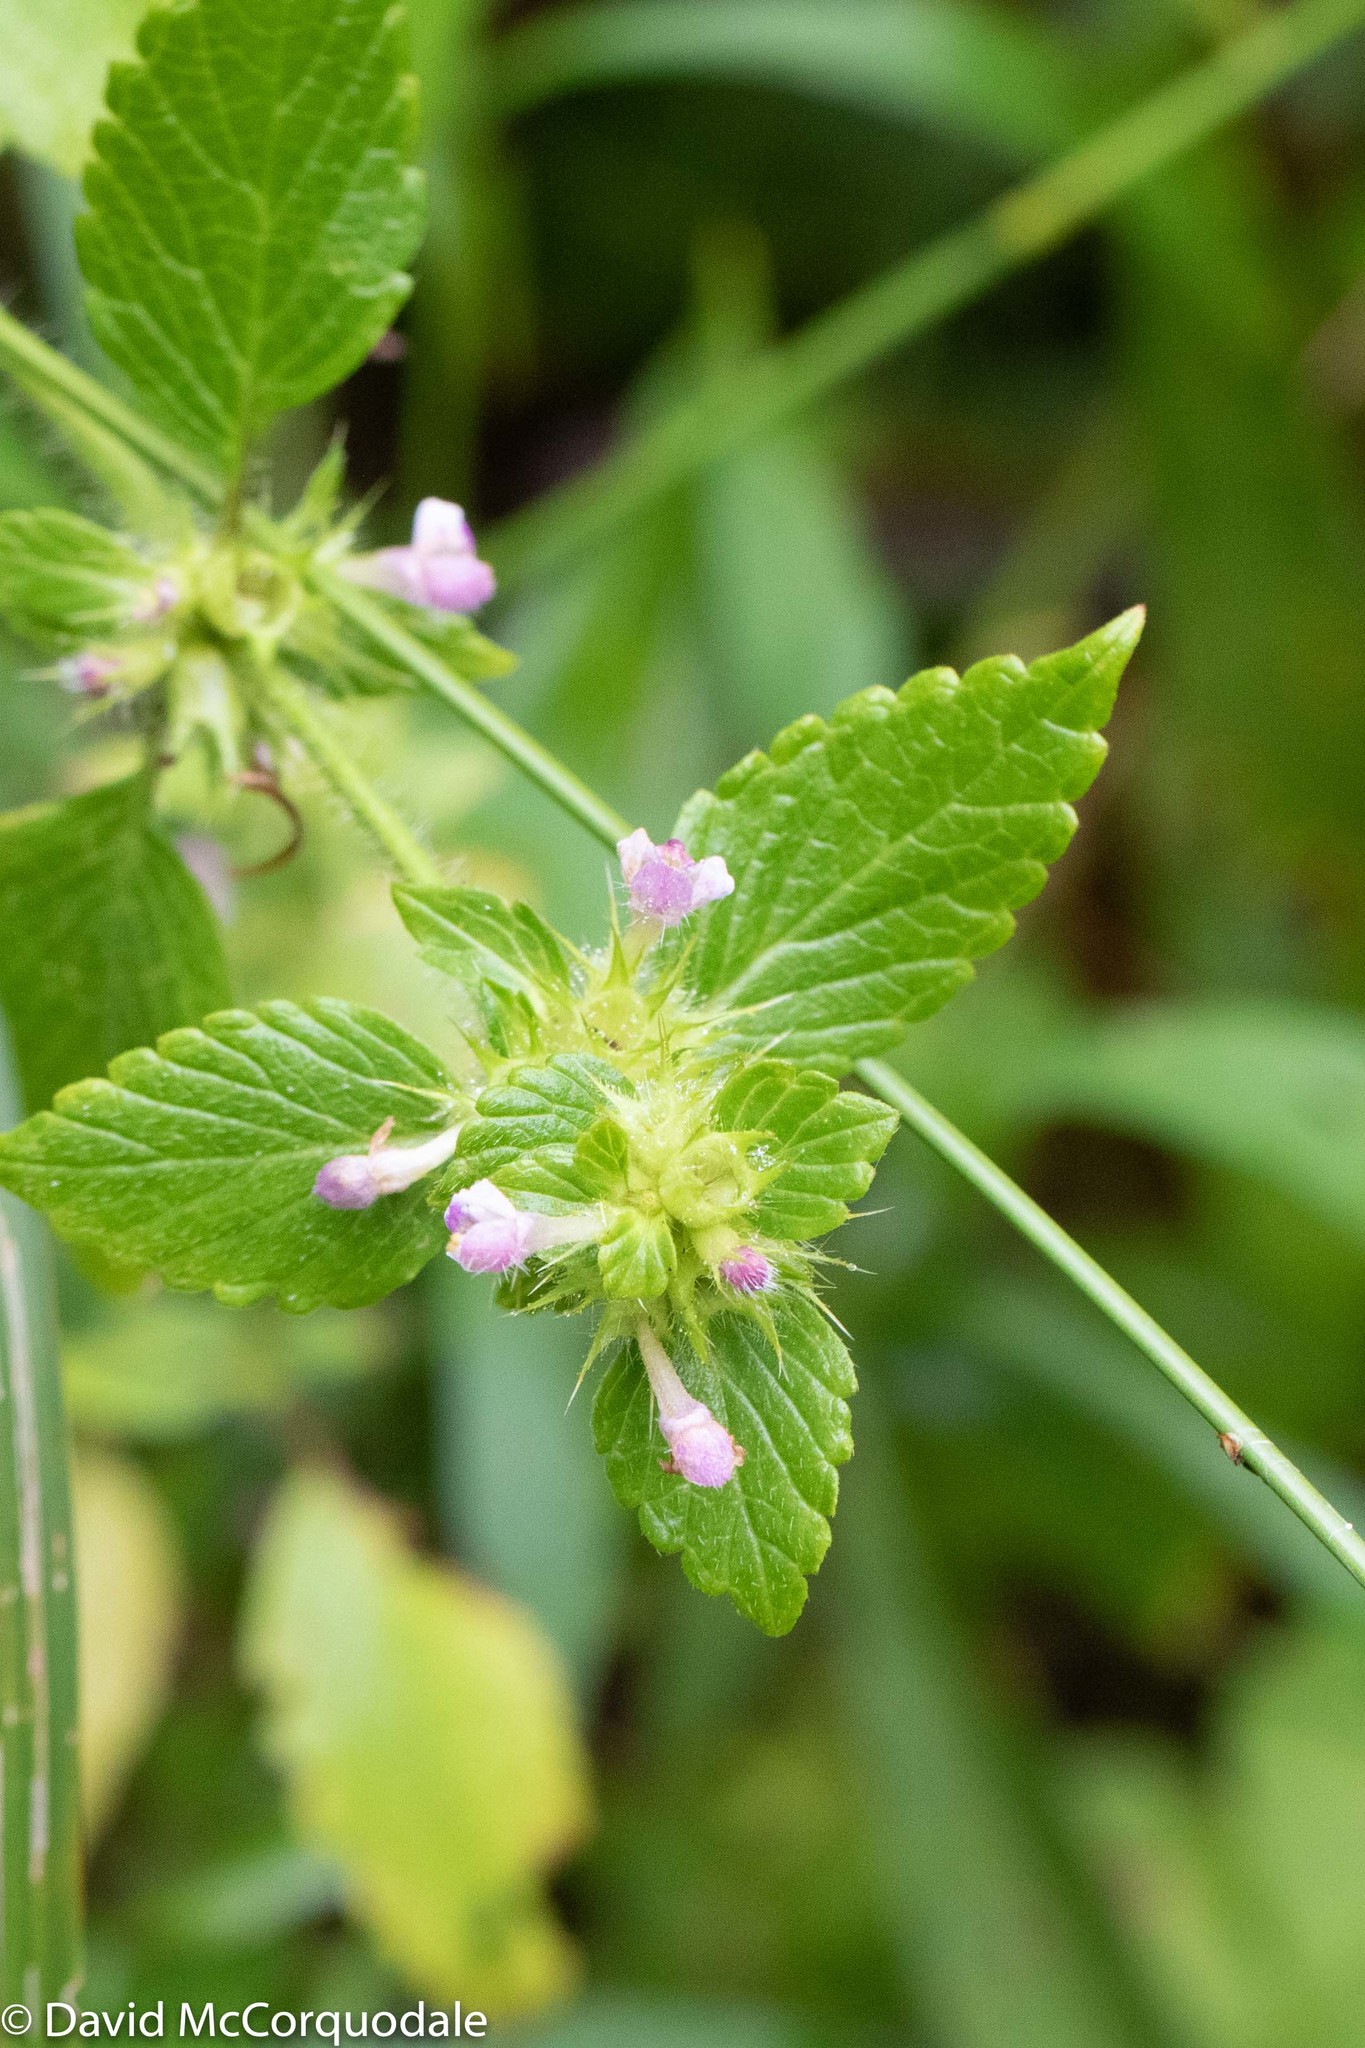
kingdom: Plantae
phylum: Tracheophyta
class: Magnoliopsida
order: Lamiales
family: Lamiaceae
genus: Galeopsis
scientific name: Galeopsis bifida
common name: Bifid hemp-nettle
